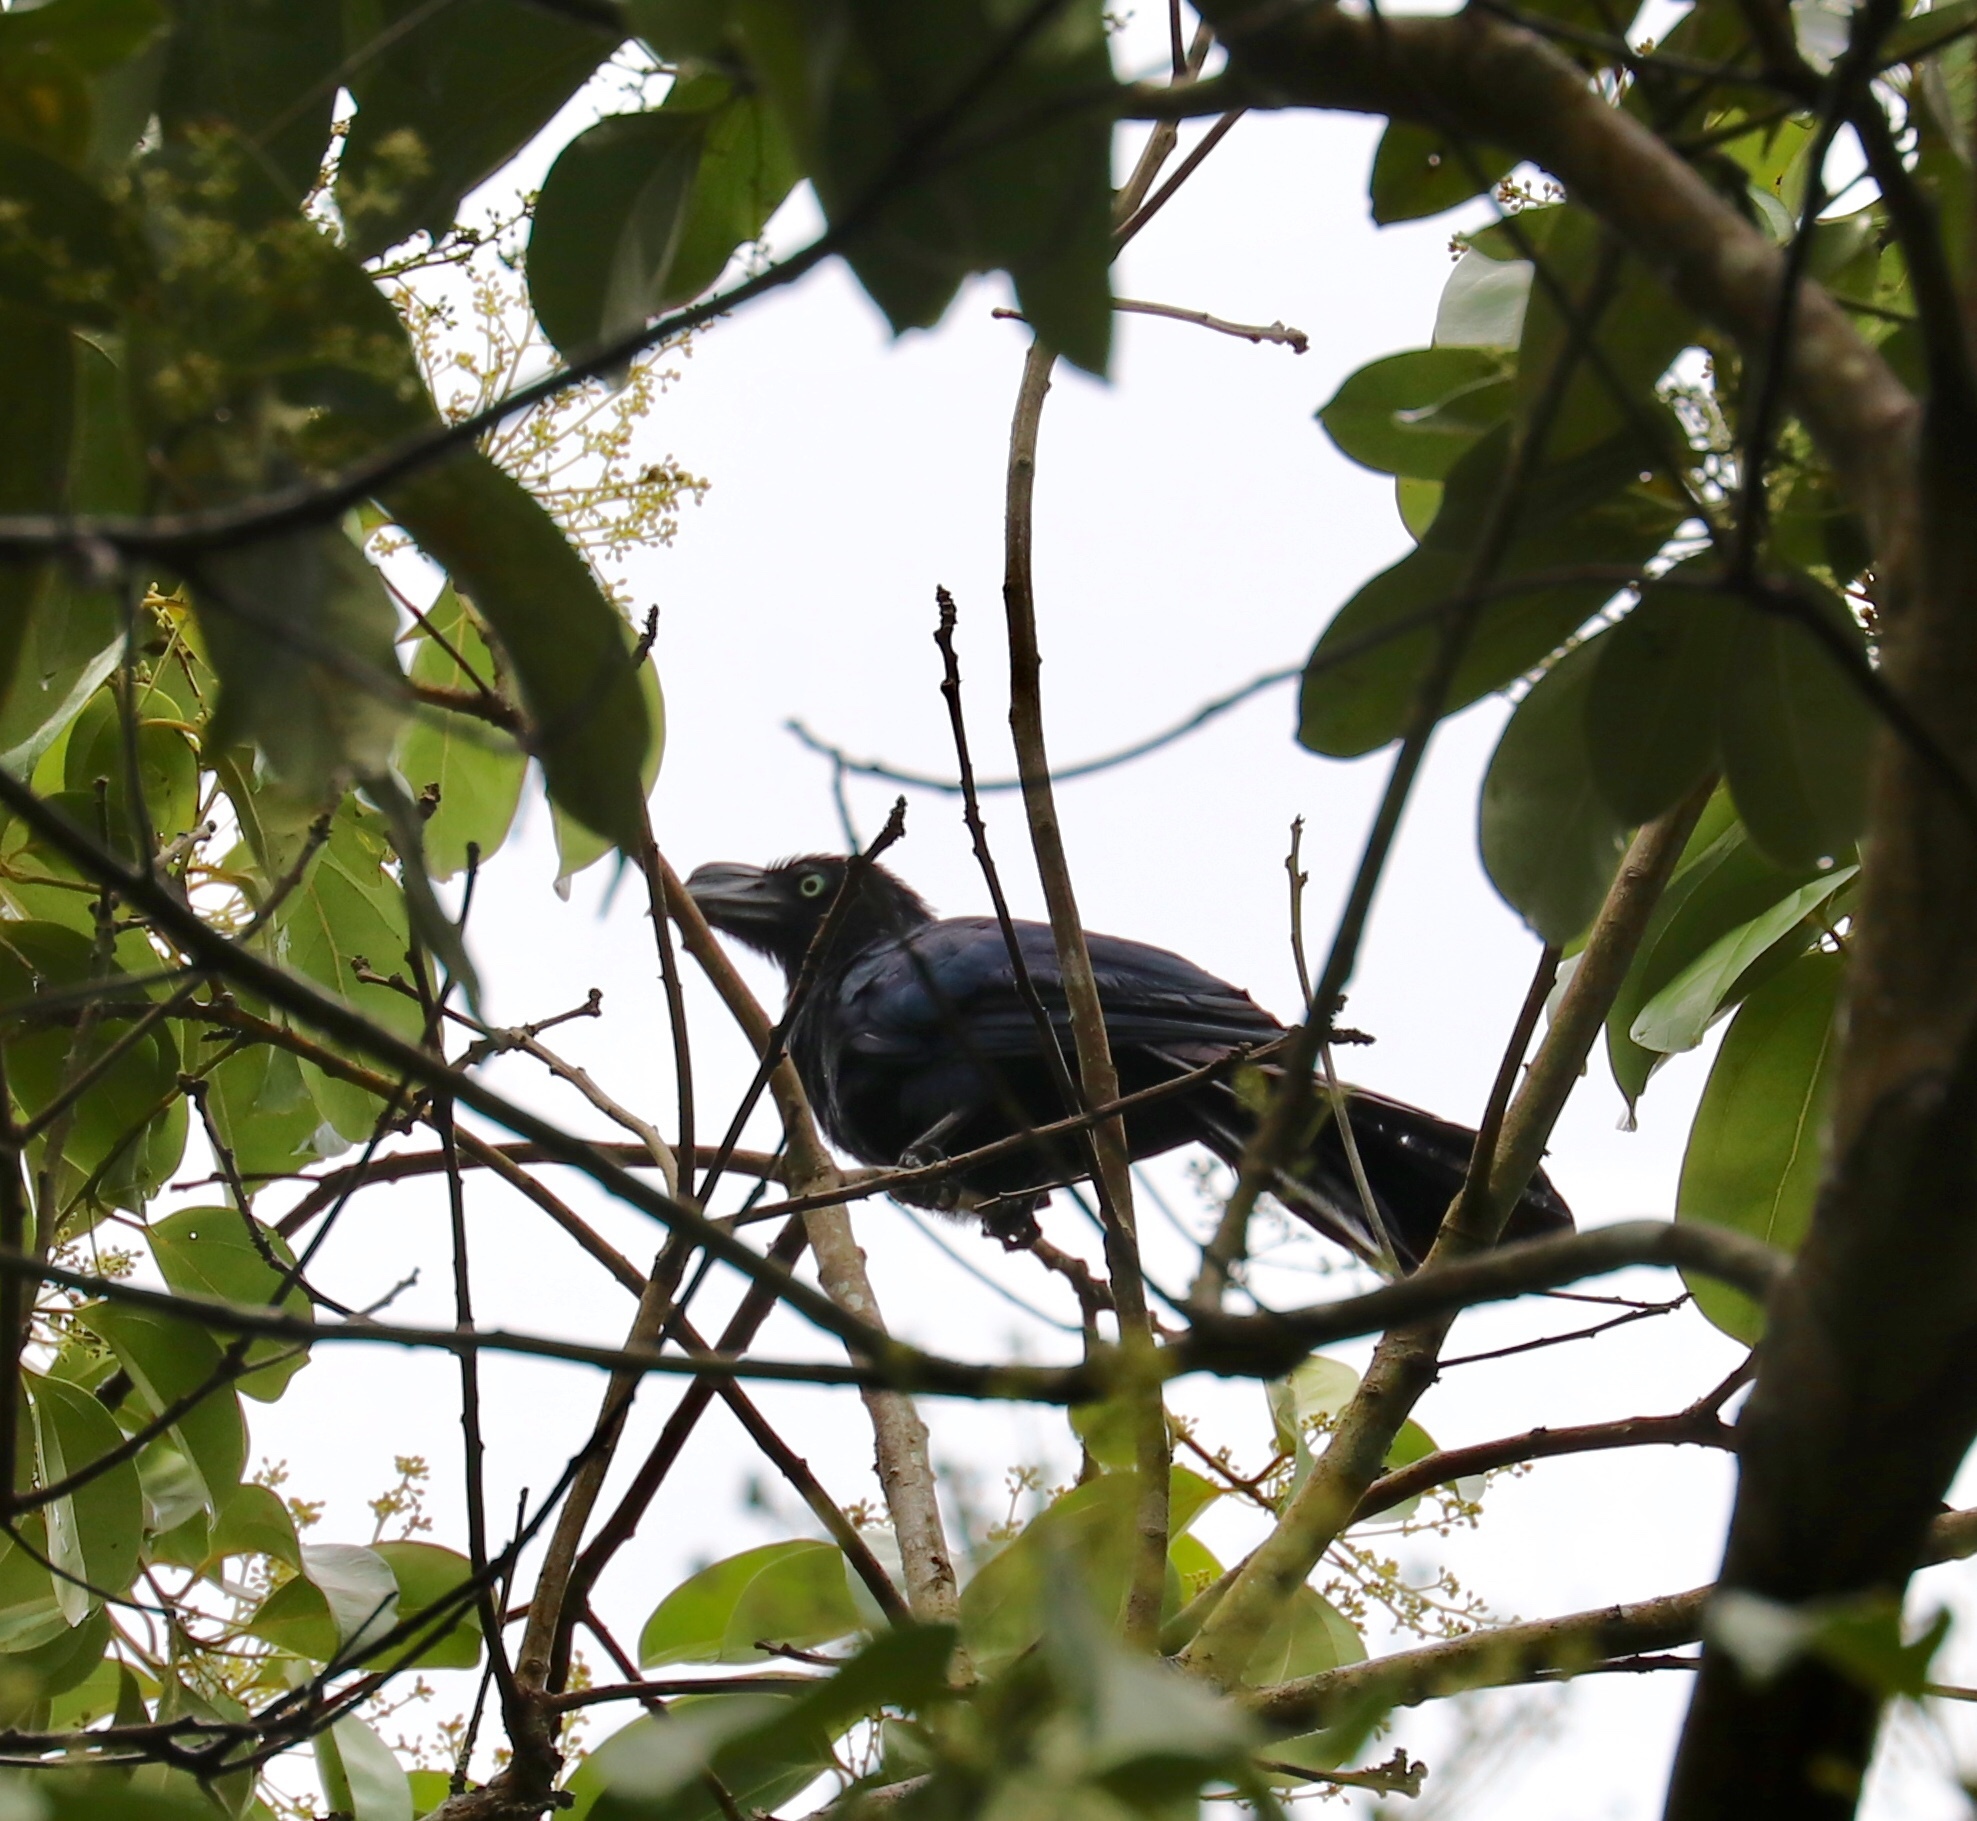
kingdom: Animalia
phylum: Chordata
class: Aves
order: Cuculiformes
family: Cuculidae
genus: Crotophaga
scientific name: Crotophaga major
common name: Greater ani
